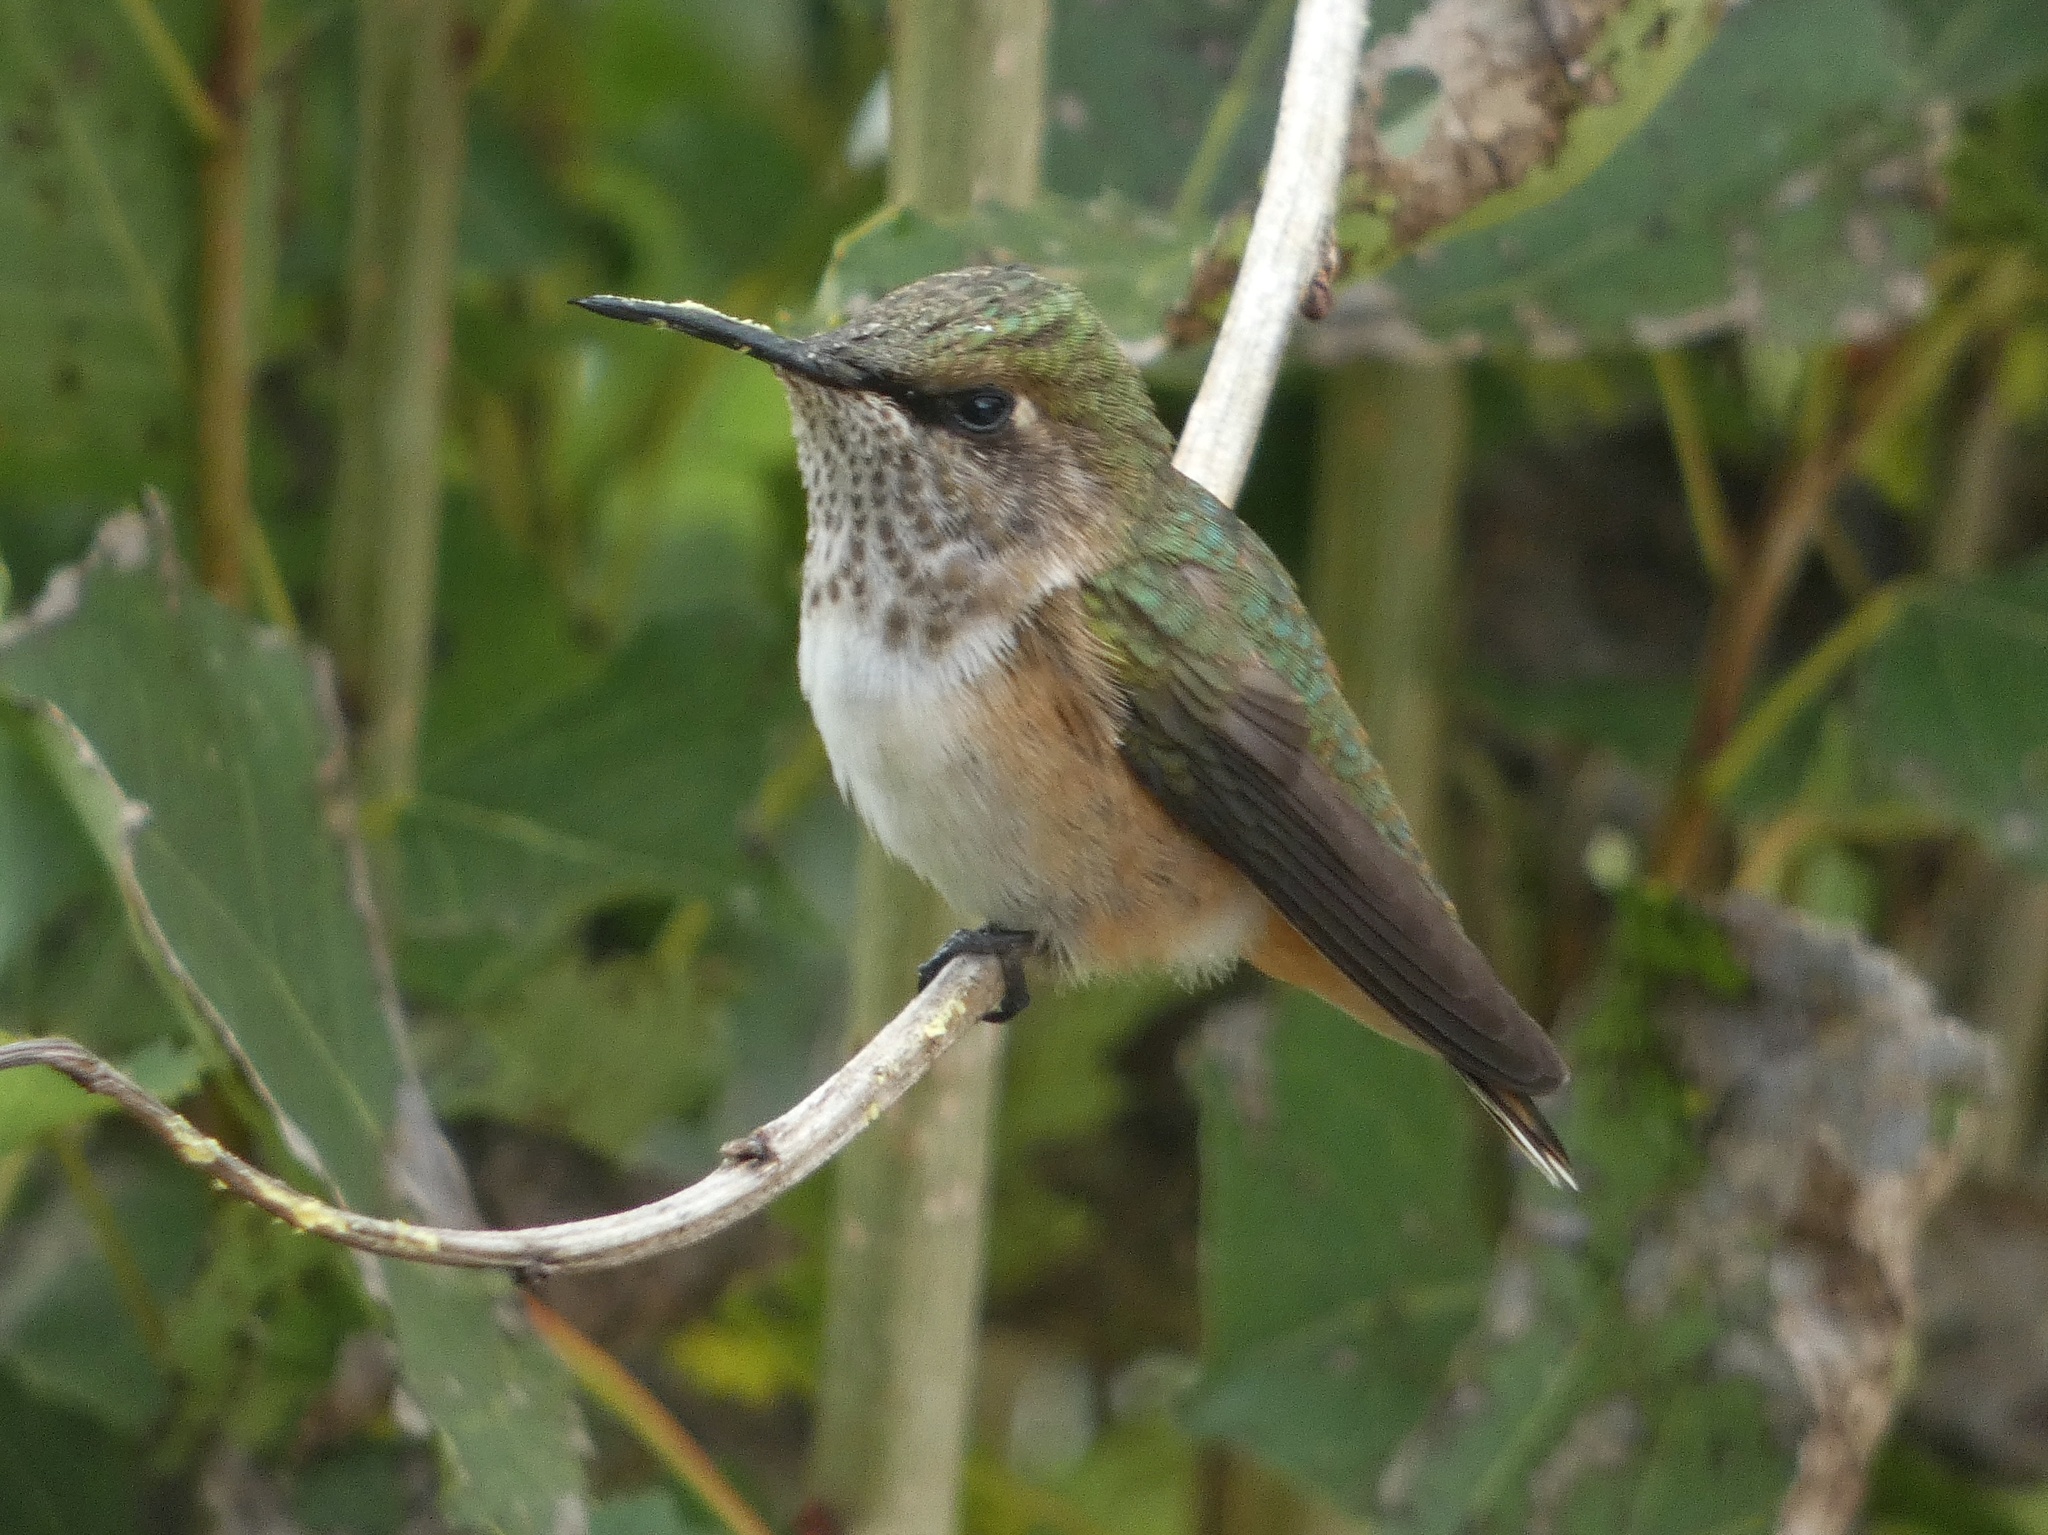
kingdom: Animalia
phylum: Chordata
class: Aves
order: Apodiformes
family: Trochilidae
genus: Selasphorus
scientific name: Selasphorus flammula
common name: Volcano hummingbird
